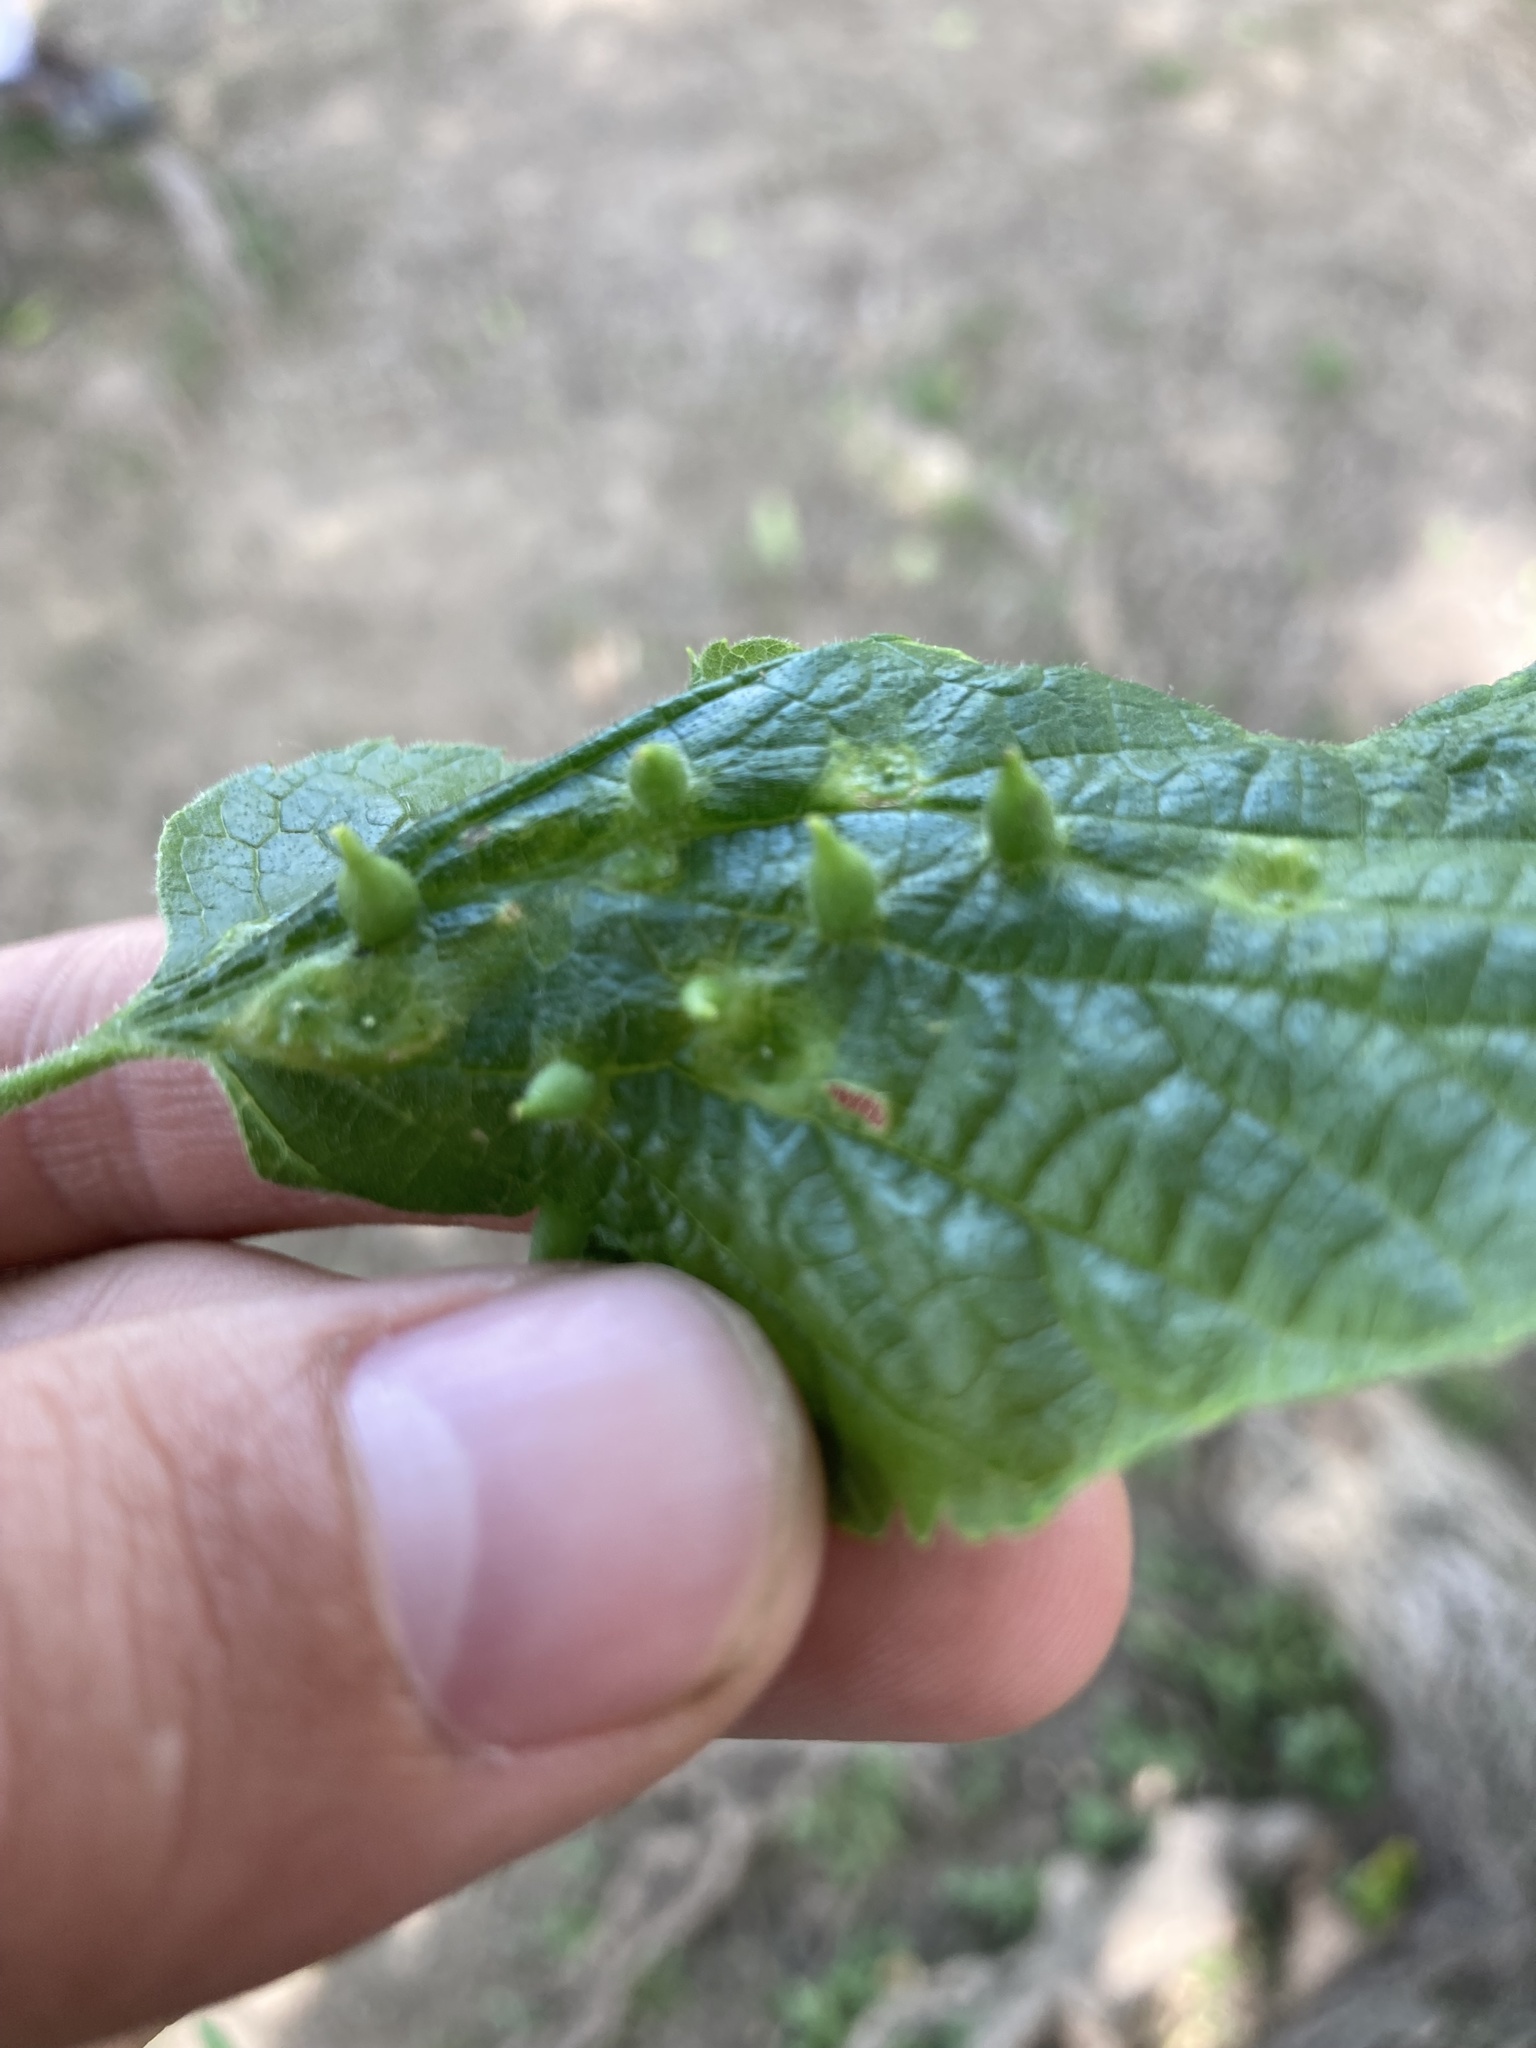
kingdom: Animalia
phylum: Arthropoda
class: Insecta
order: Diptera
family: Cecidomyiidae
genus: Celticecis
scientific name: Celticecis ovata
